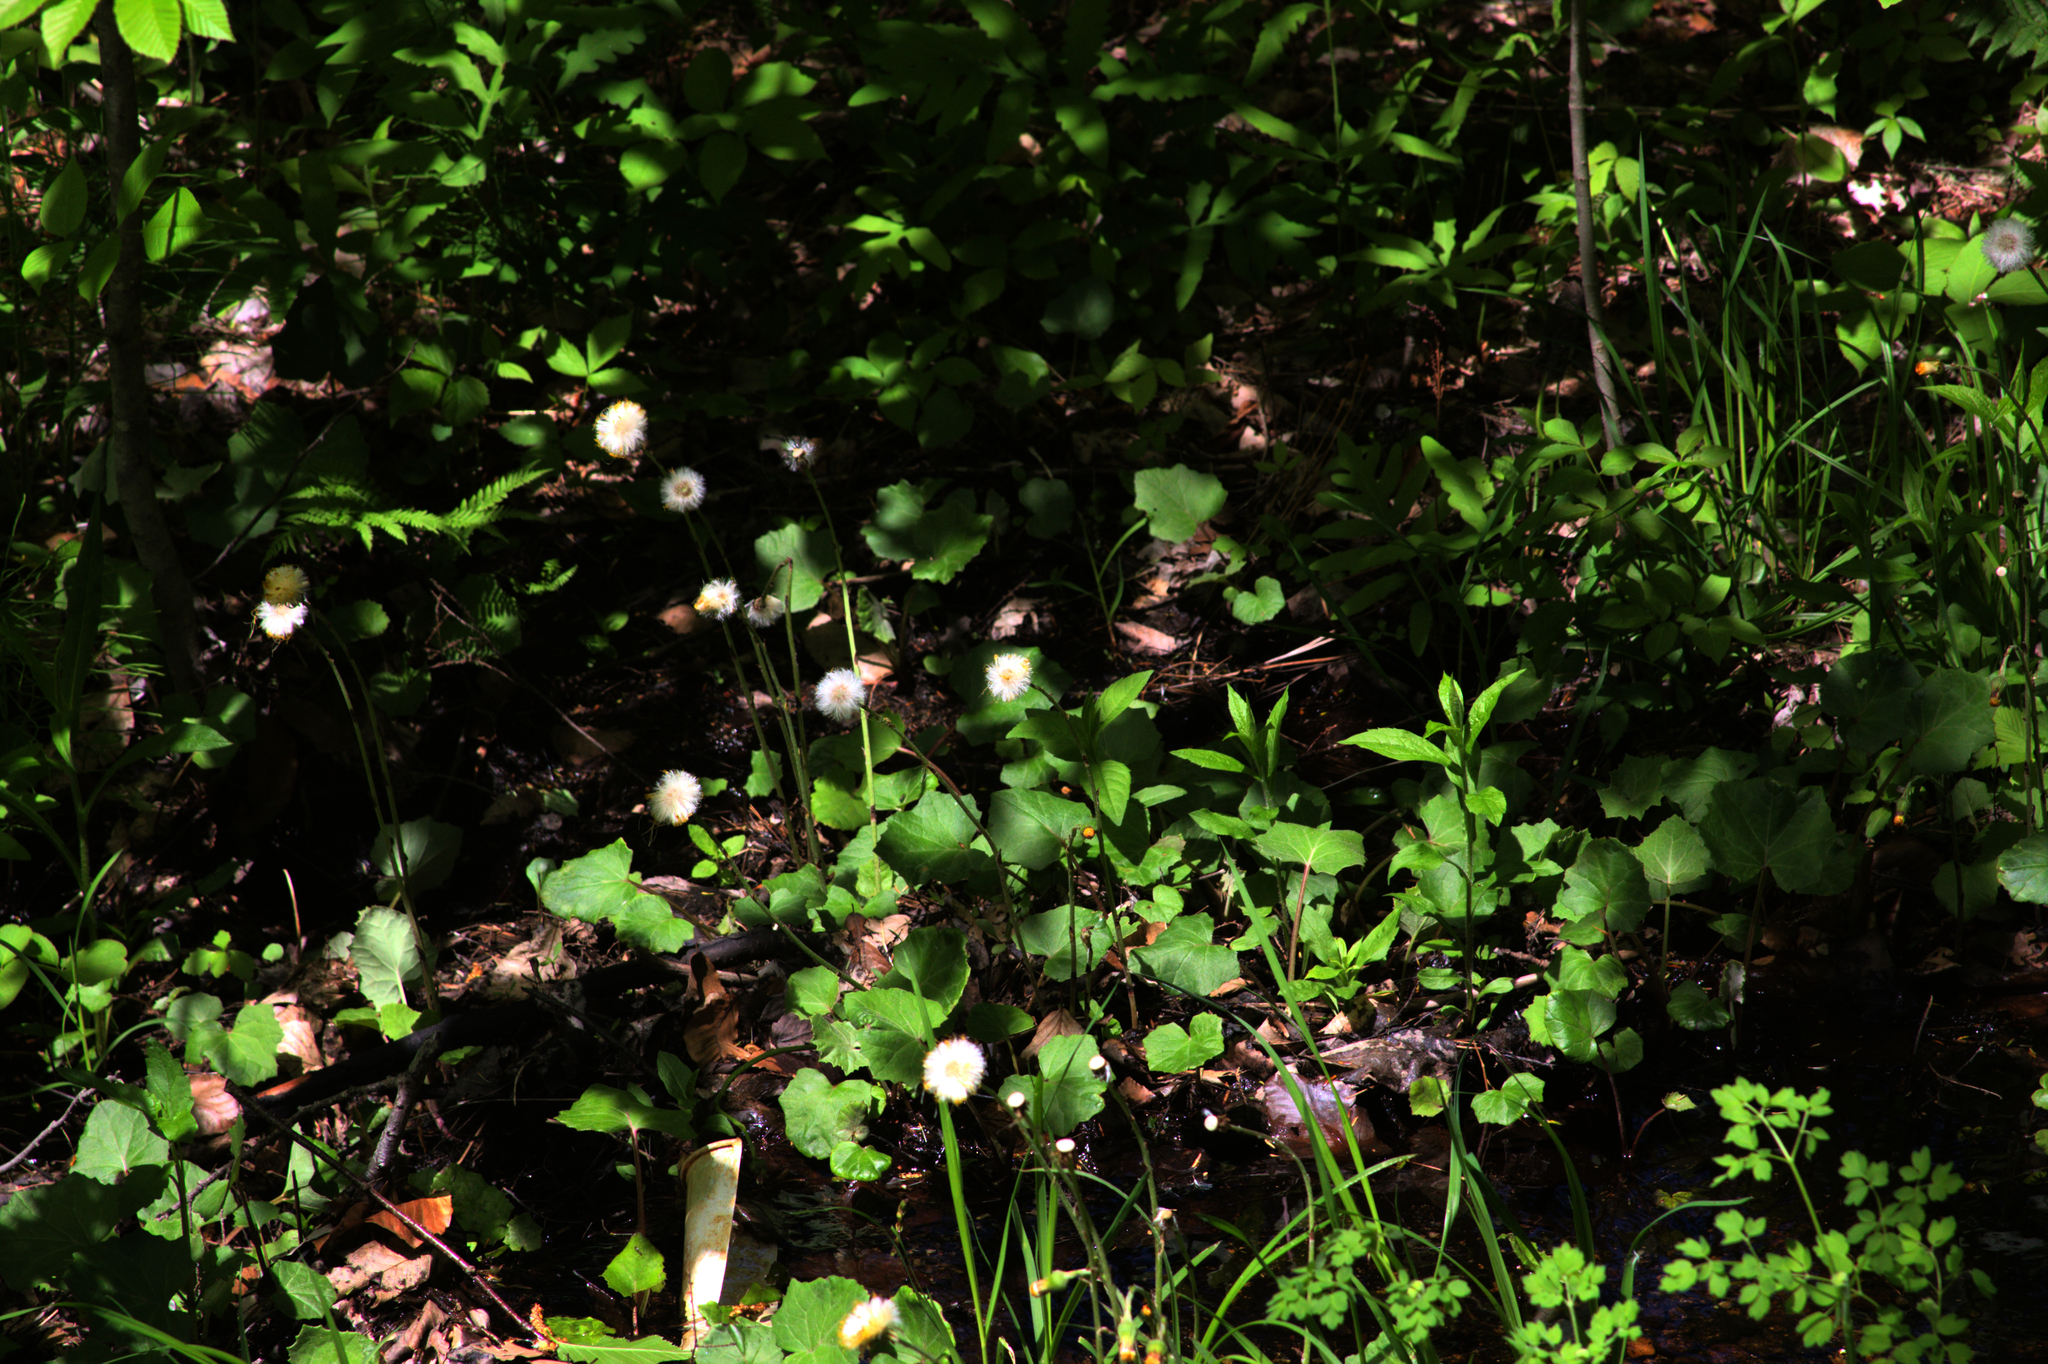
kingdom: Plantae
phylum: Tracheophyta
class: Magnoliopsida
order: Asterales
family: Asteraceae
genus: Tussilago
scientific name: Tussilago farfara
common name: Coltsfoot
